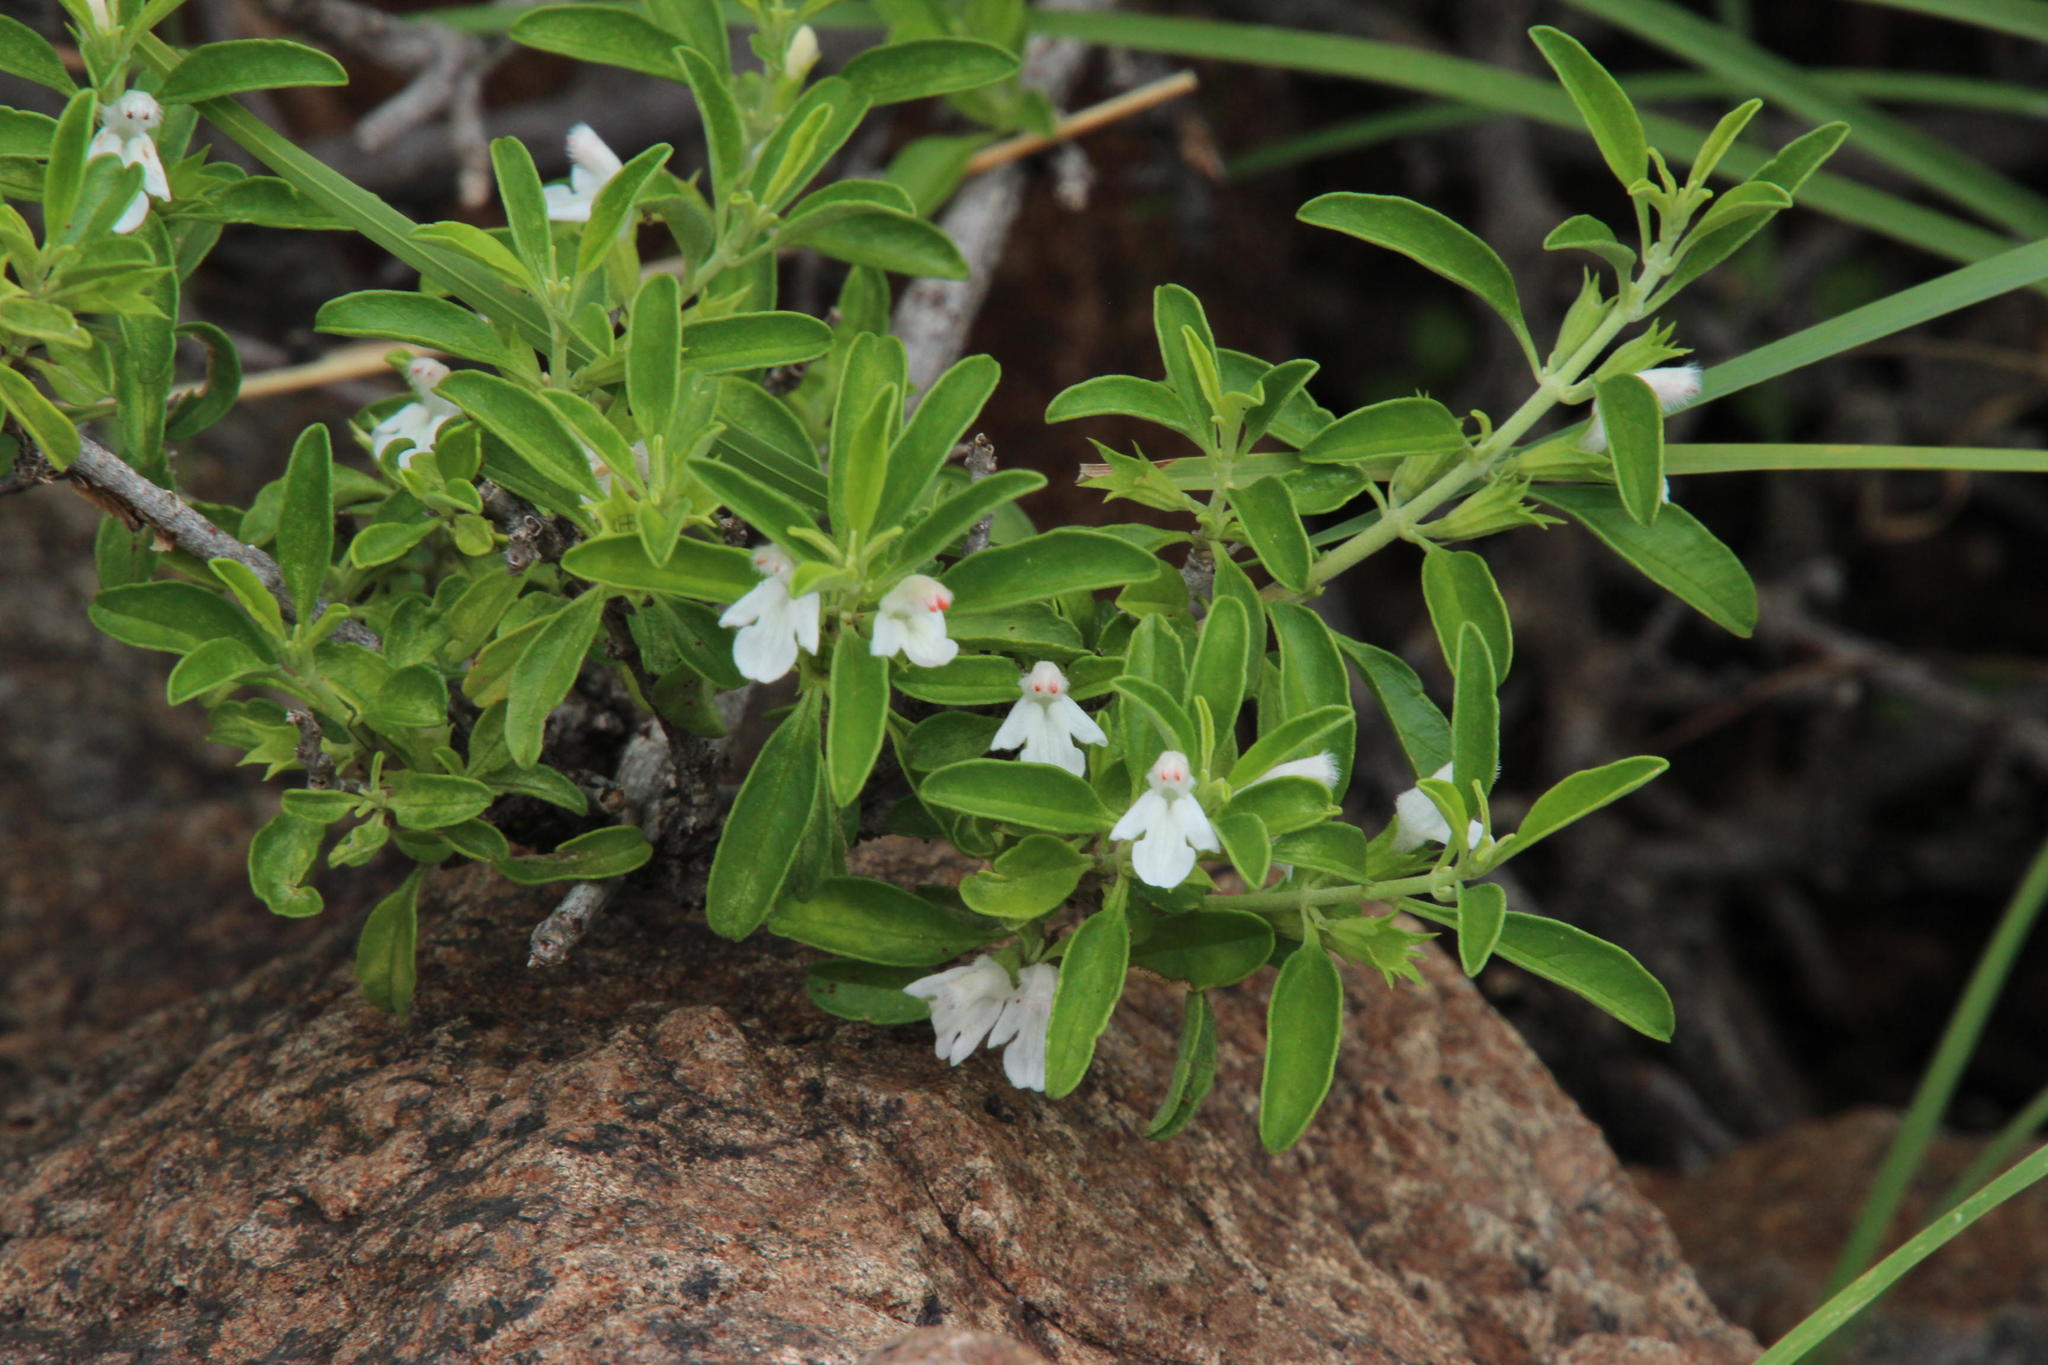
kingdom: Plantae
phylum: Tracheophyta
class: Magnoliopsida
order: Lamiales
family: Lamiaceae
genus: Leucas
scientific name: Leucas capensis
